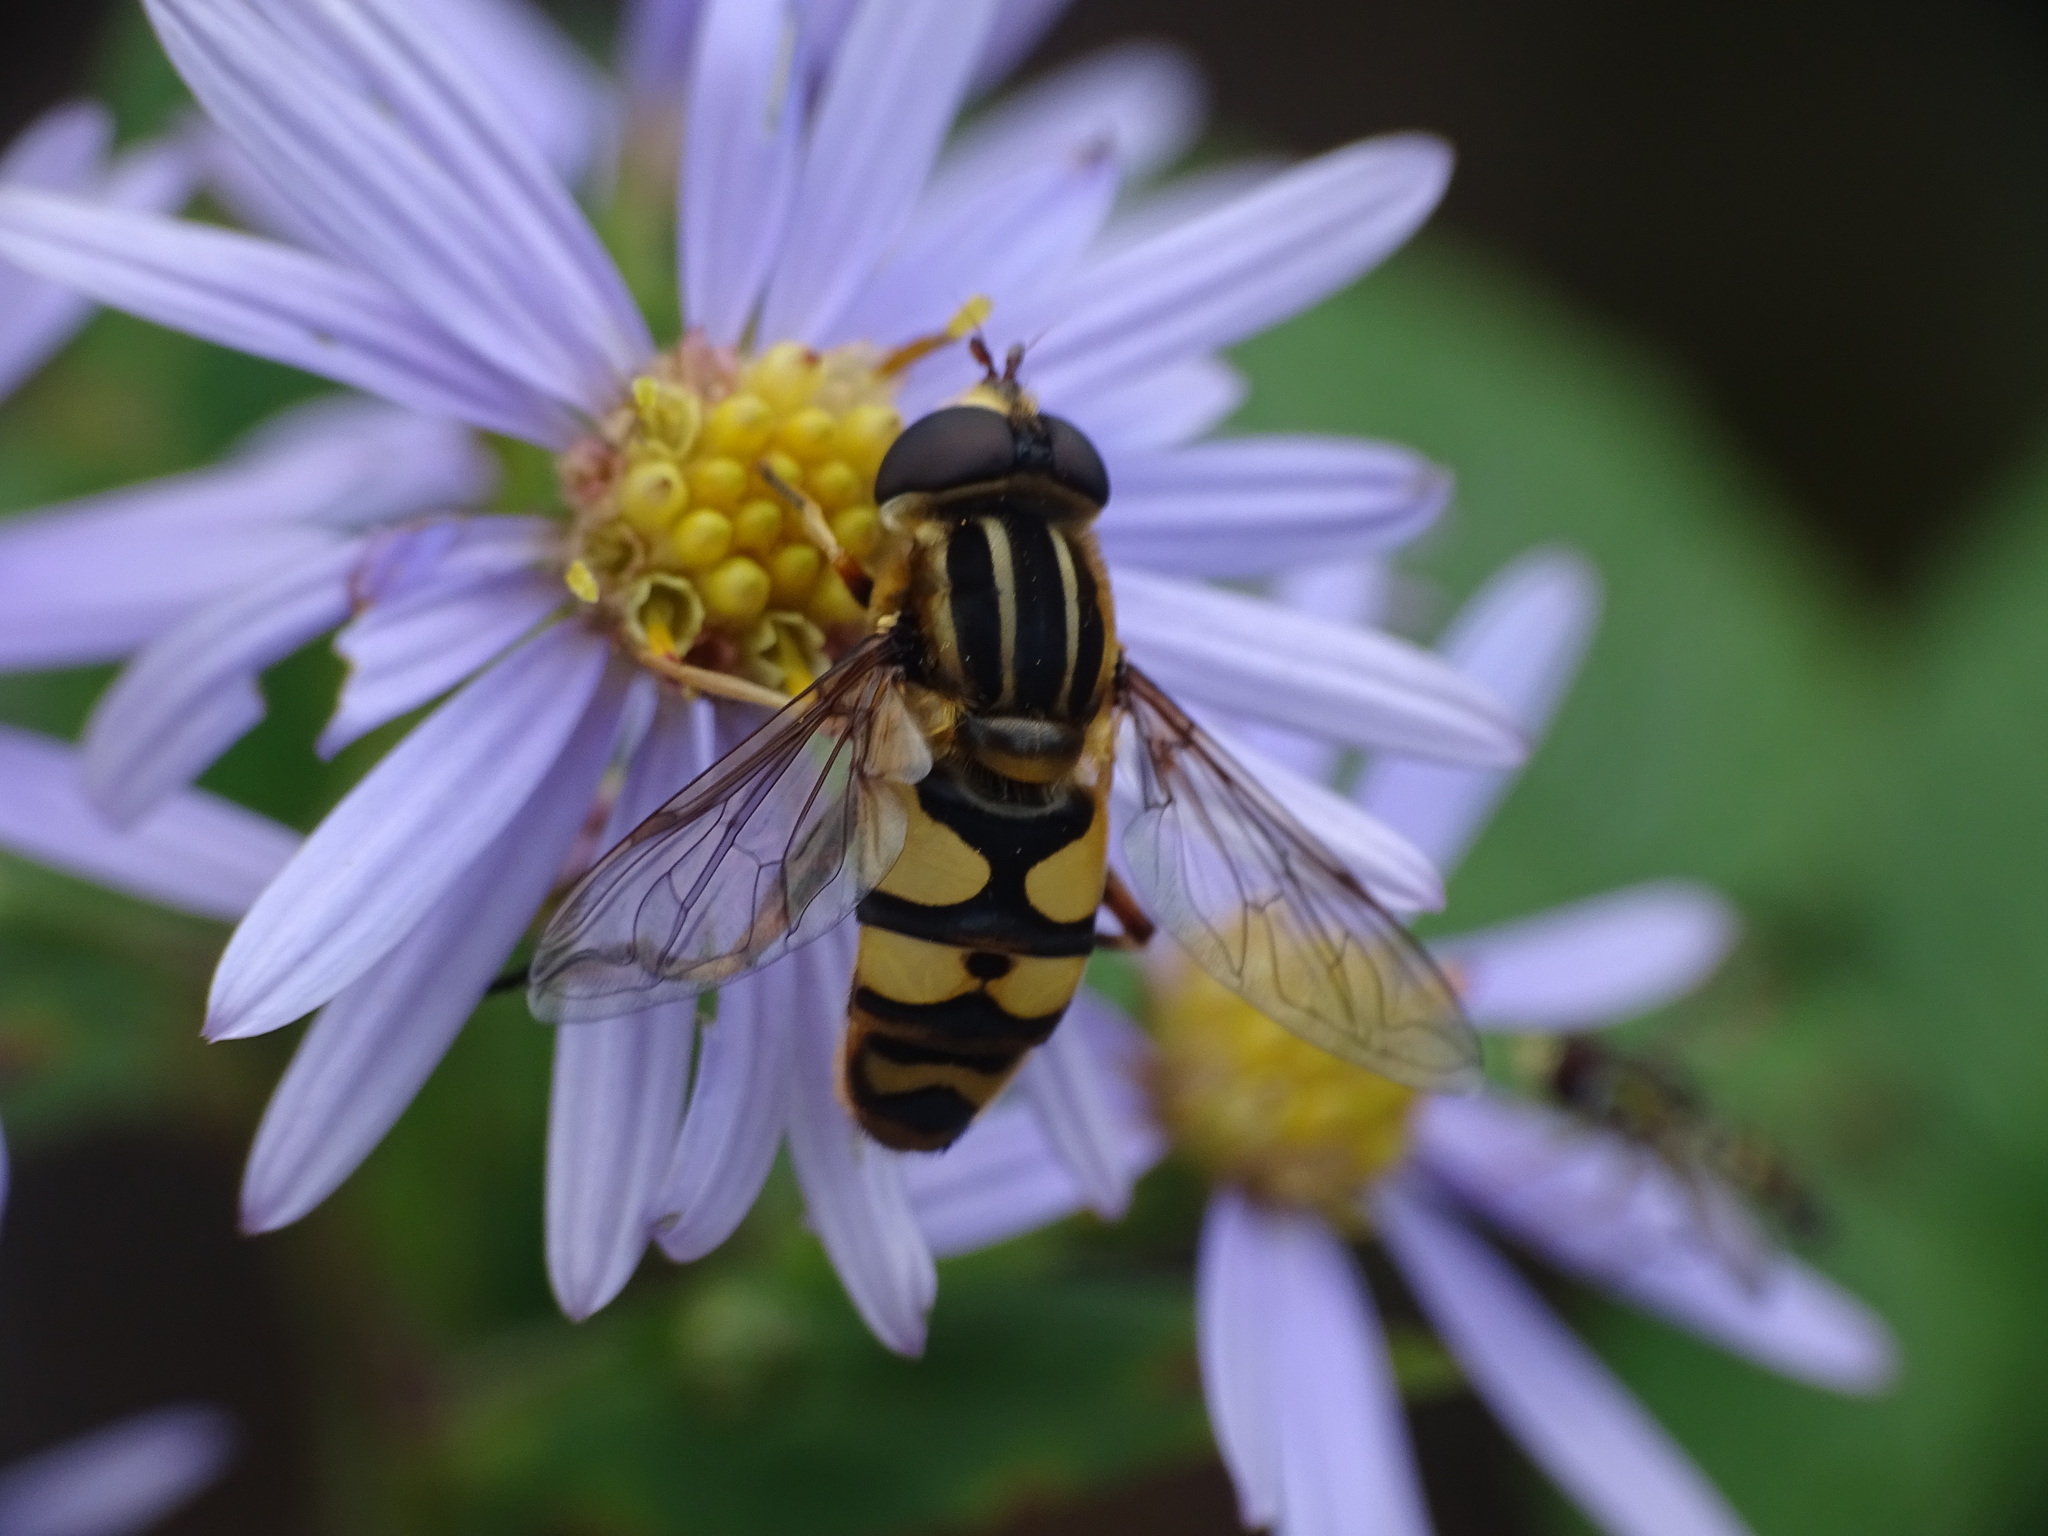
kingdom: Animalia
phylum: Arthropoda
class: Insecta
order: Diptera
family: Syrphidae
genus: Helophilus
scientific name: Helophilus fasciatus
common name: Narrow-headed marsh fly
